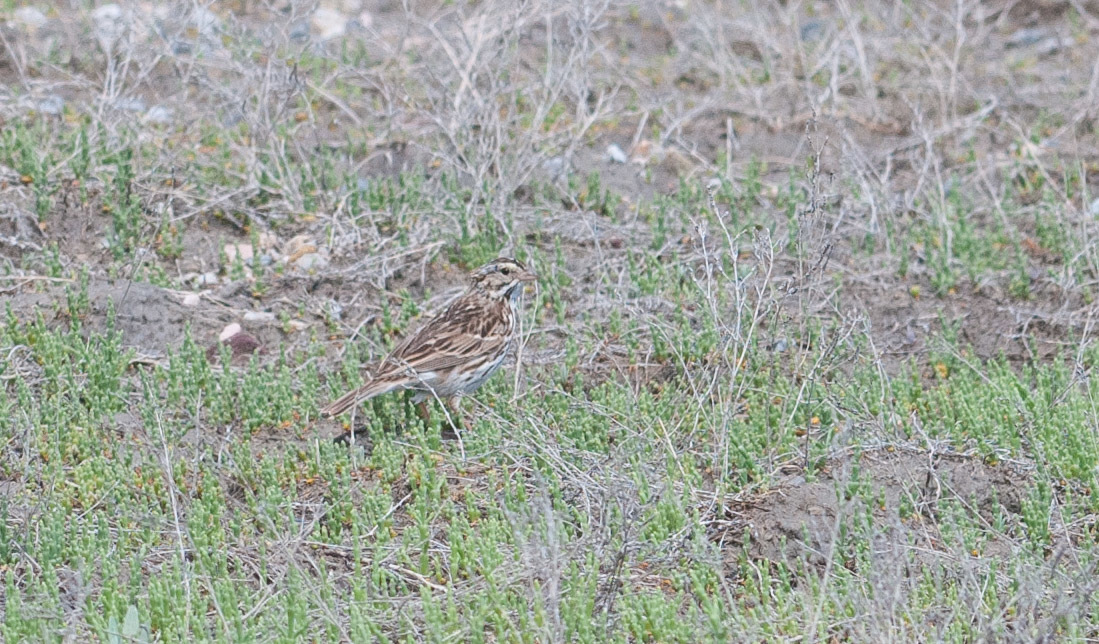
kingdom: Animalia
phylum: Chordata
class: Aves
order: Passeriformes
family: Passerellidae
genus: Passerculus
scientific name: Passerculus sandwichensis
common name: Savannah sparrow
